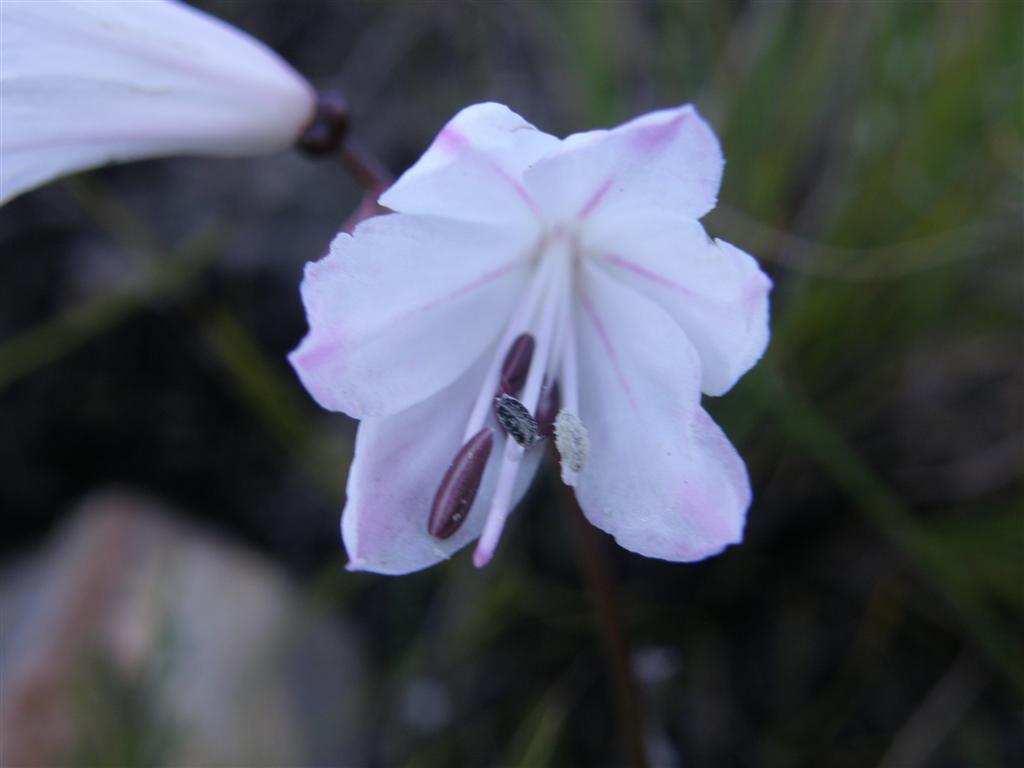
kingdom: Plantae
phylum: Tracheophyta
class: Liliopsida
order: Asparagales
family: Amaryllidaceae
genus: Nerine
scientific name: Nerine pudica
